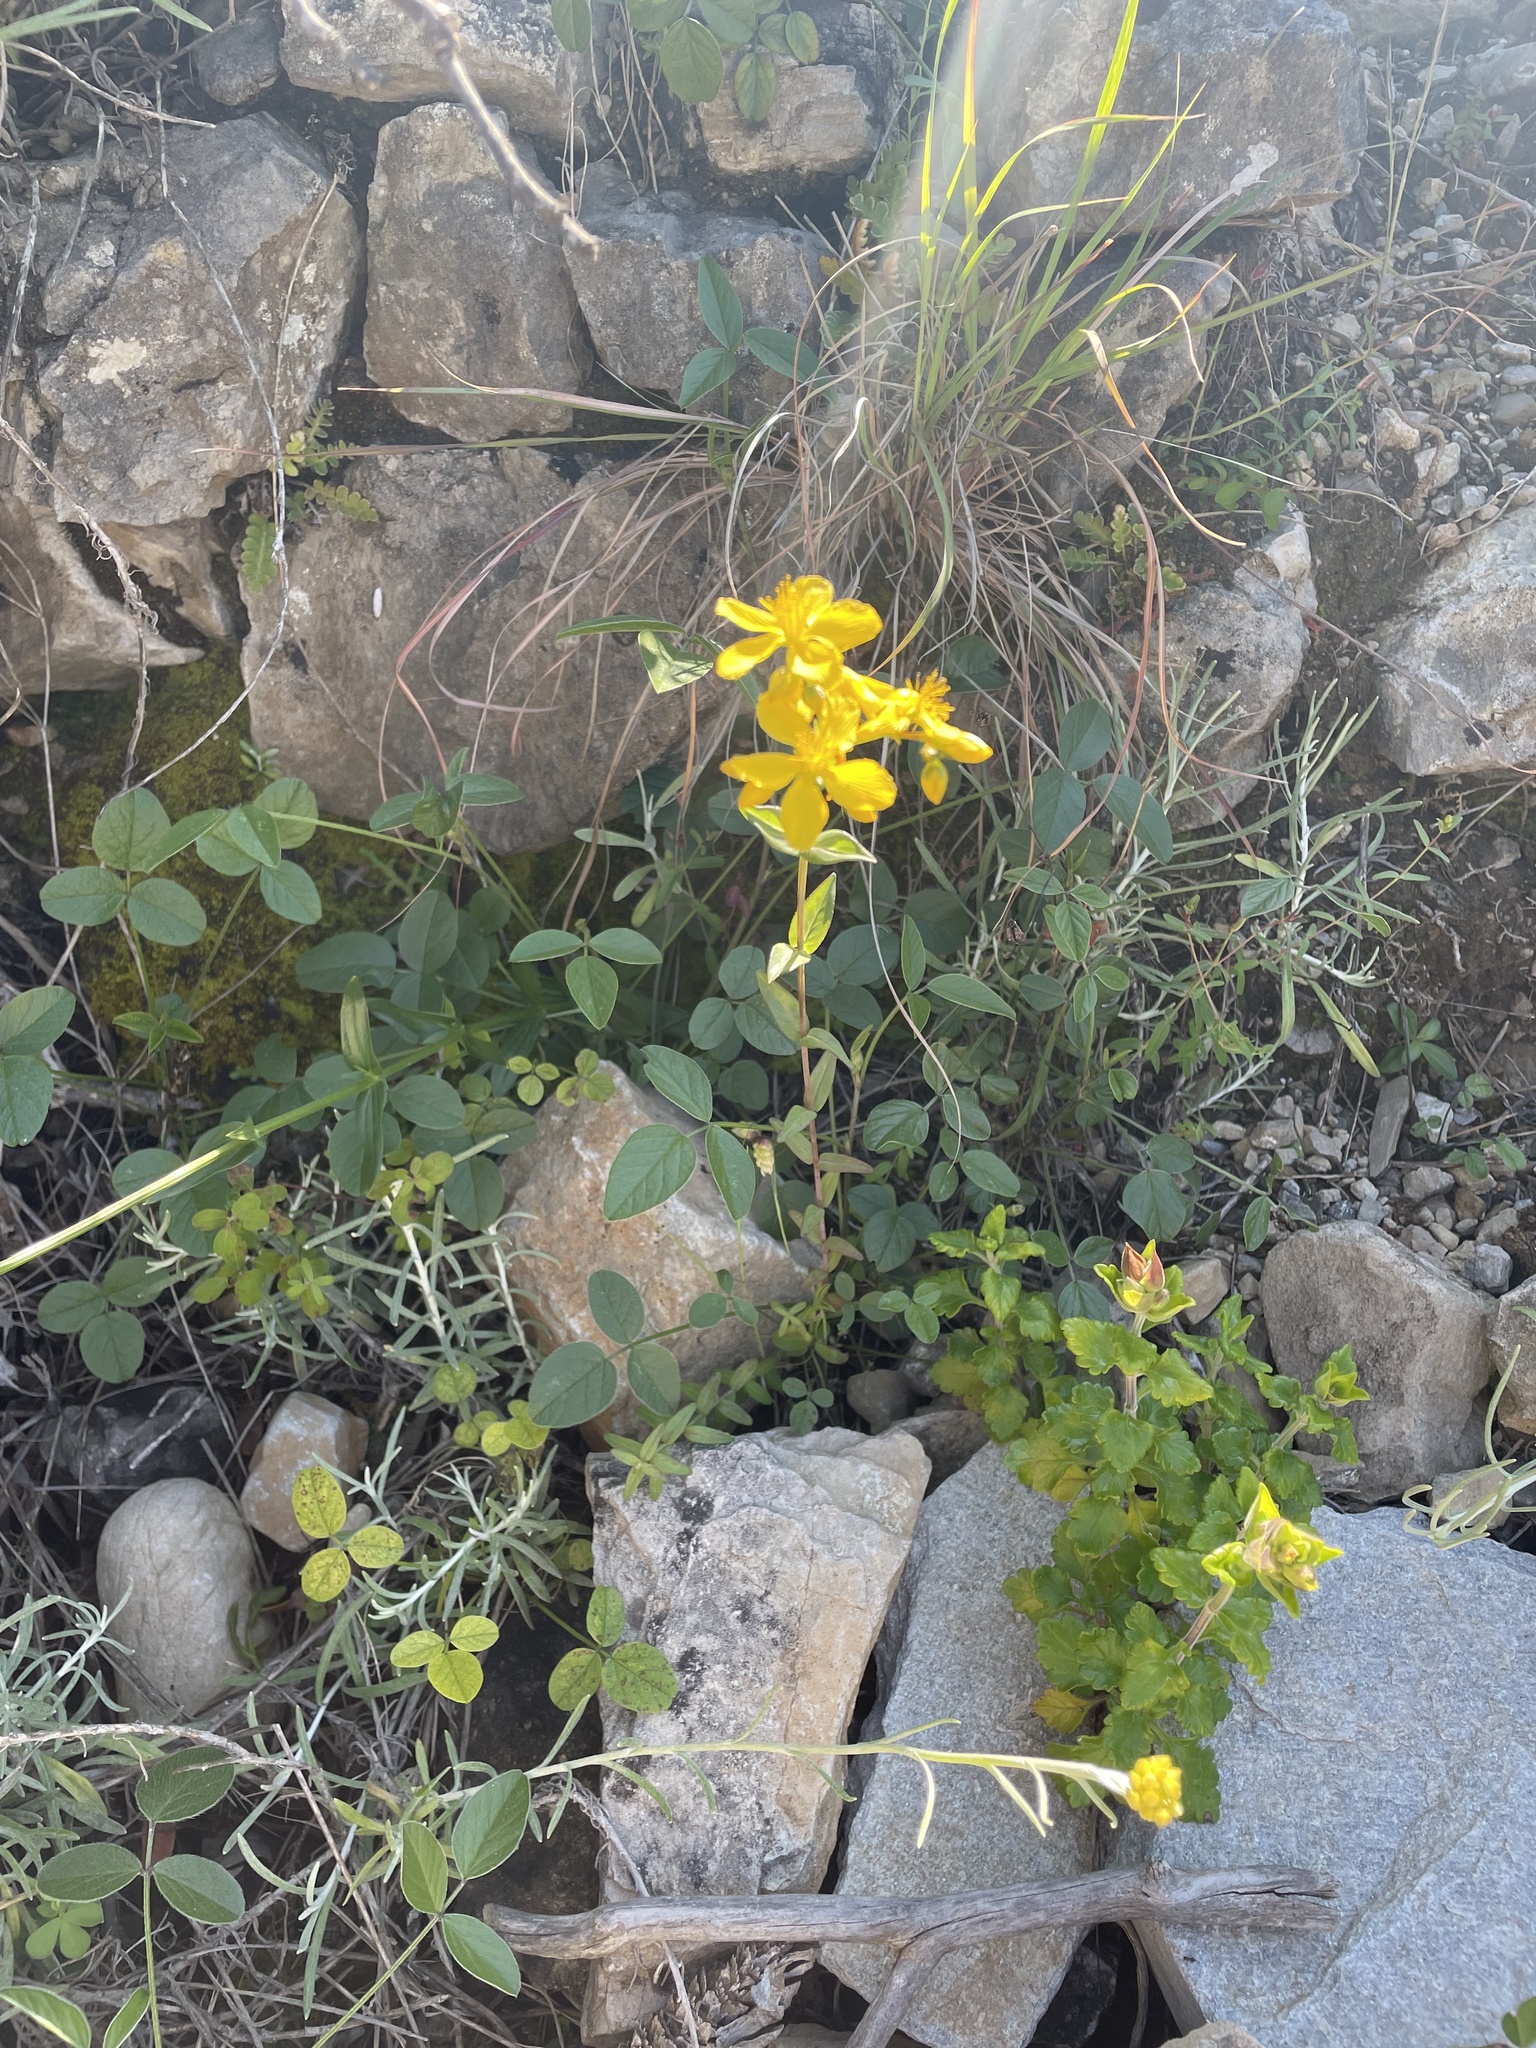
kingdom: Plantae
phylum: Tracheophyta
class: Magnoliopsida
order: Malpighiales
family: Hypericaceae
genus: Hypericum
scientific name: Hypericum perfoliatum
